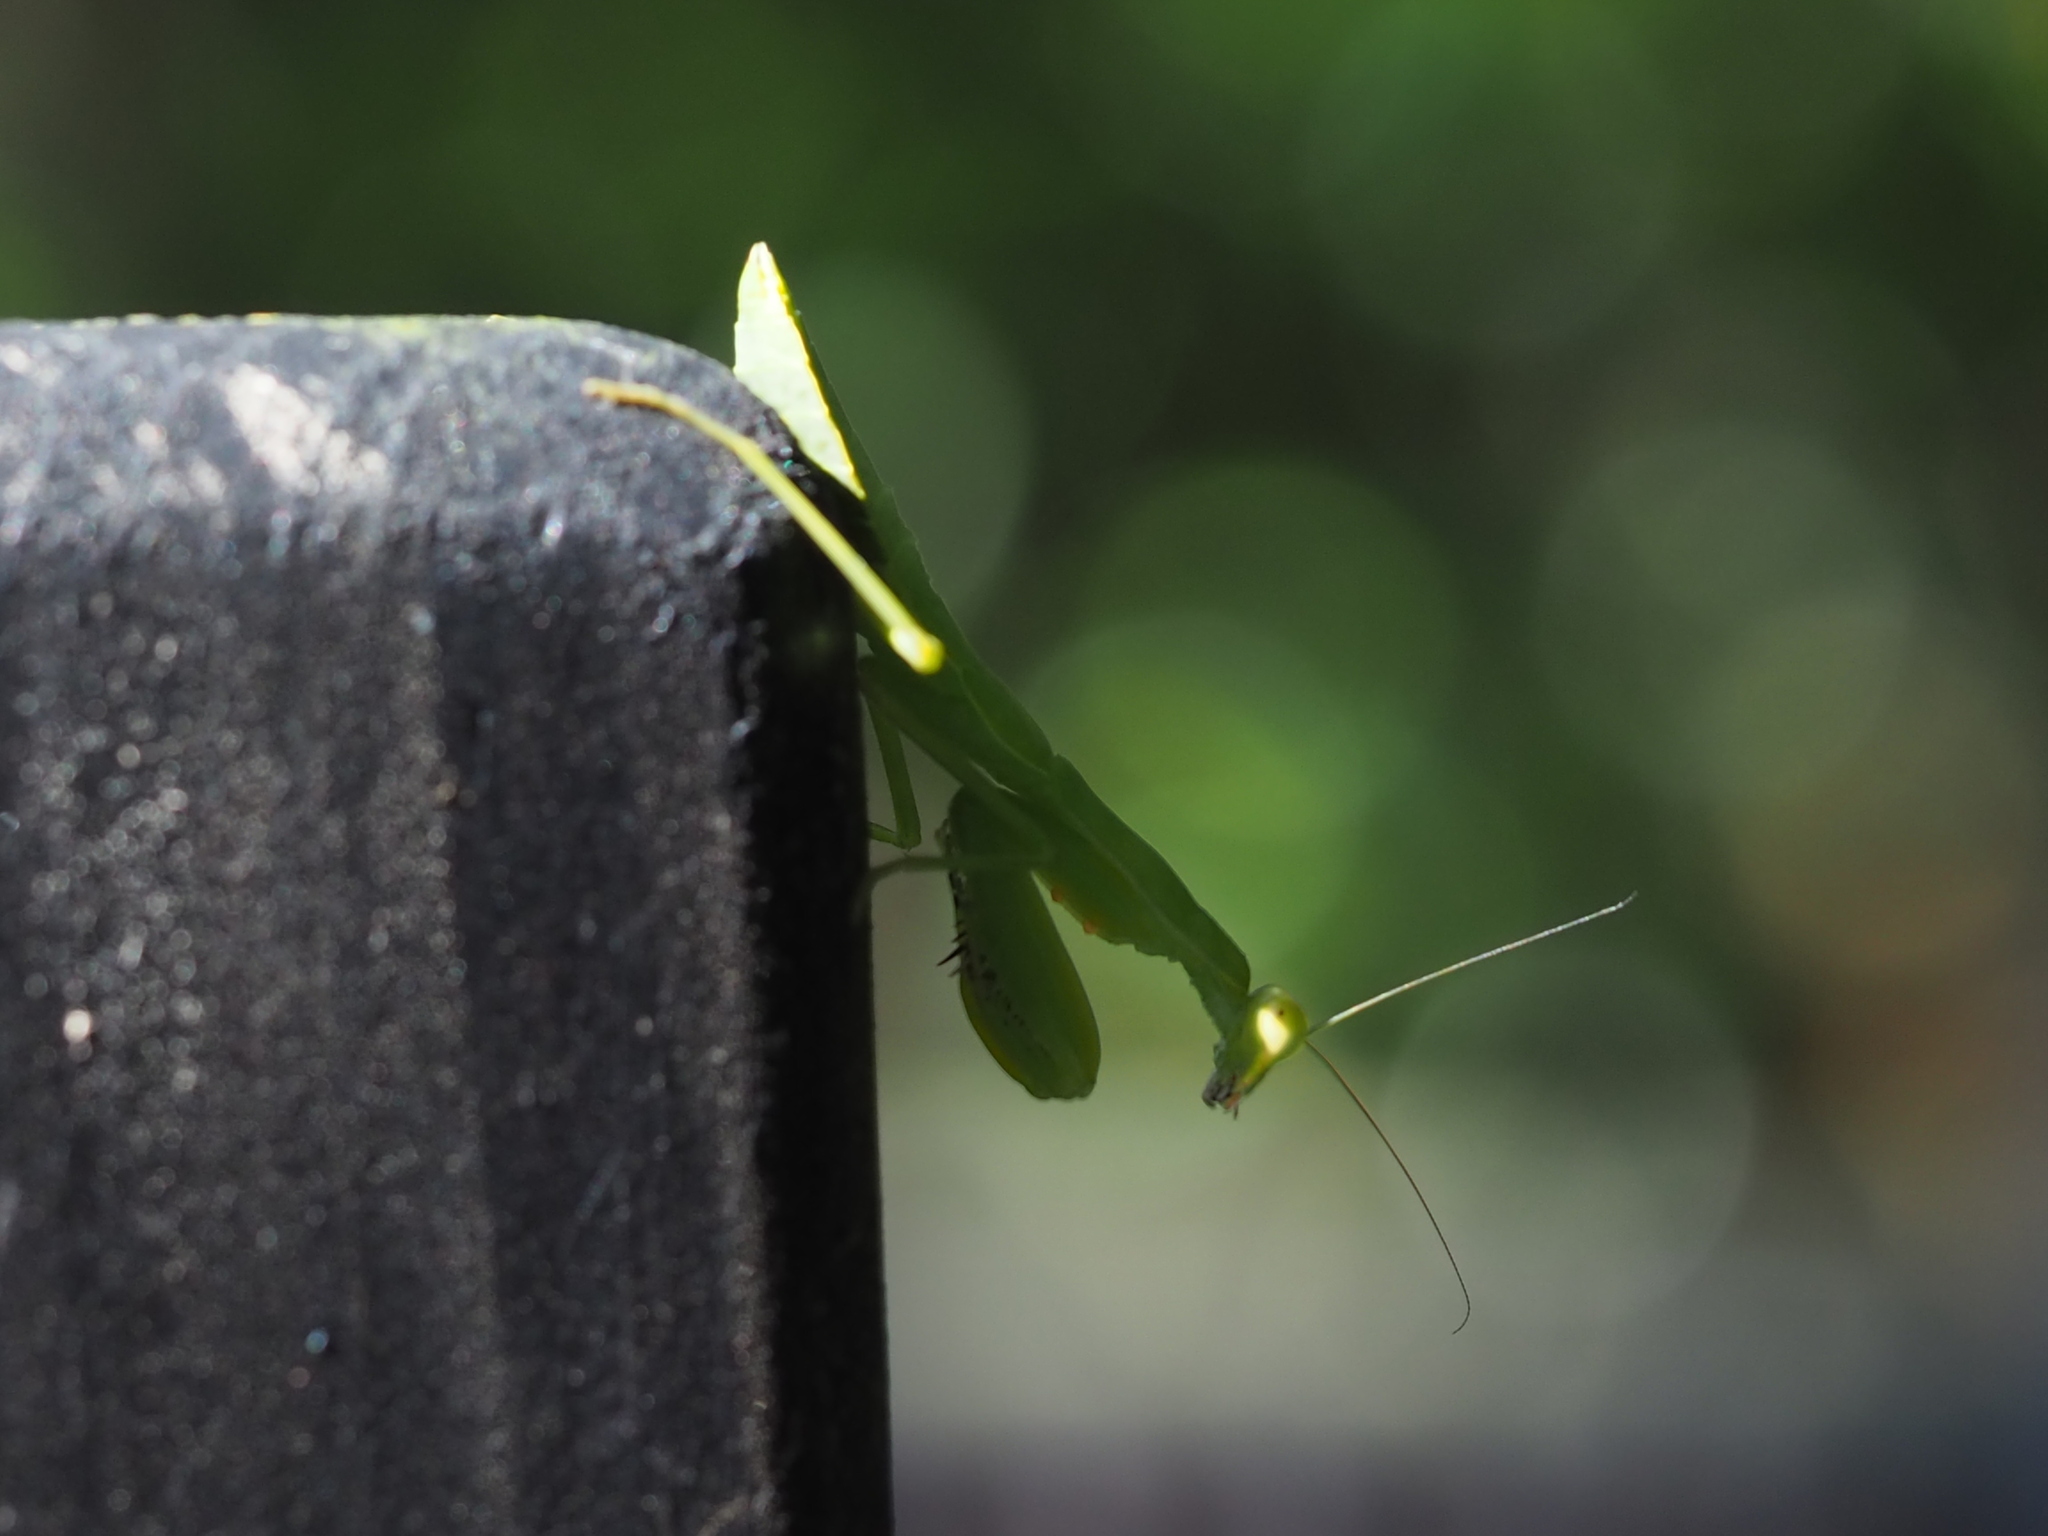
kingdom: Animalia
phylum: Arthropoda
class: Insecta
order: Mantodea
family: Mantidae
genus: Hierodula
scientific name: Hierodula patellifera
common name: Asian mantis
